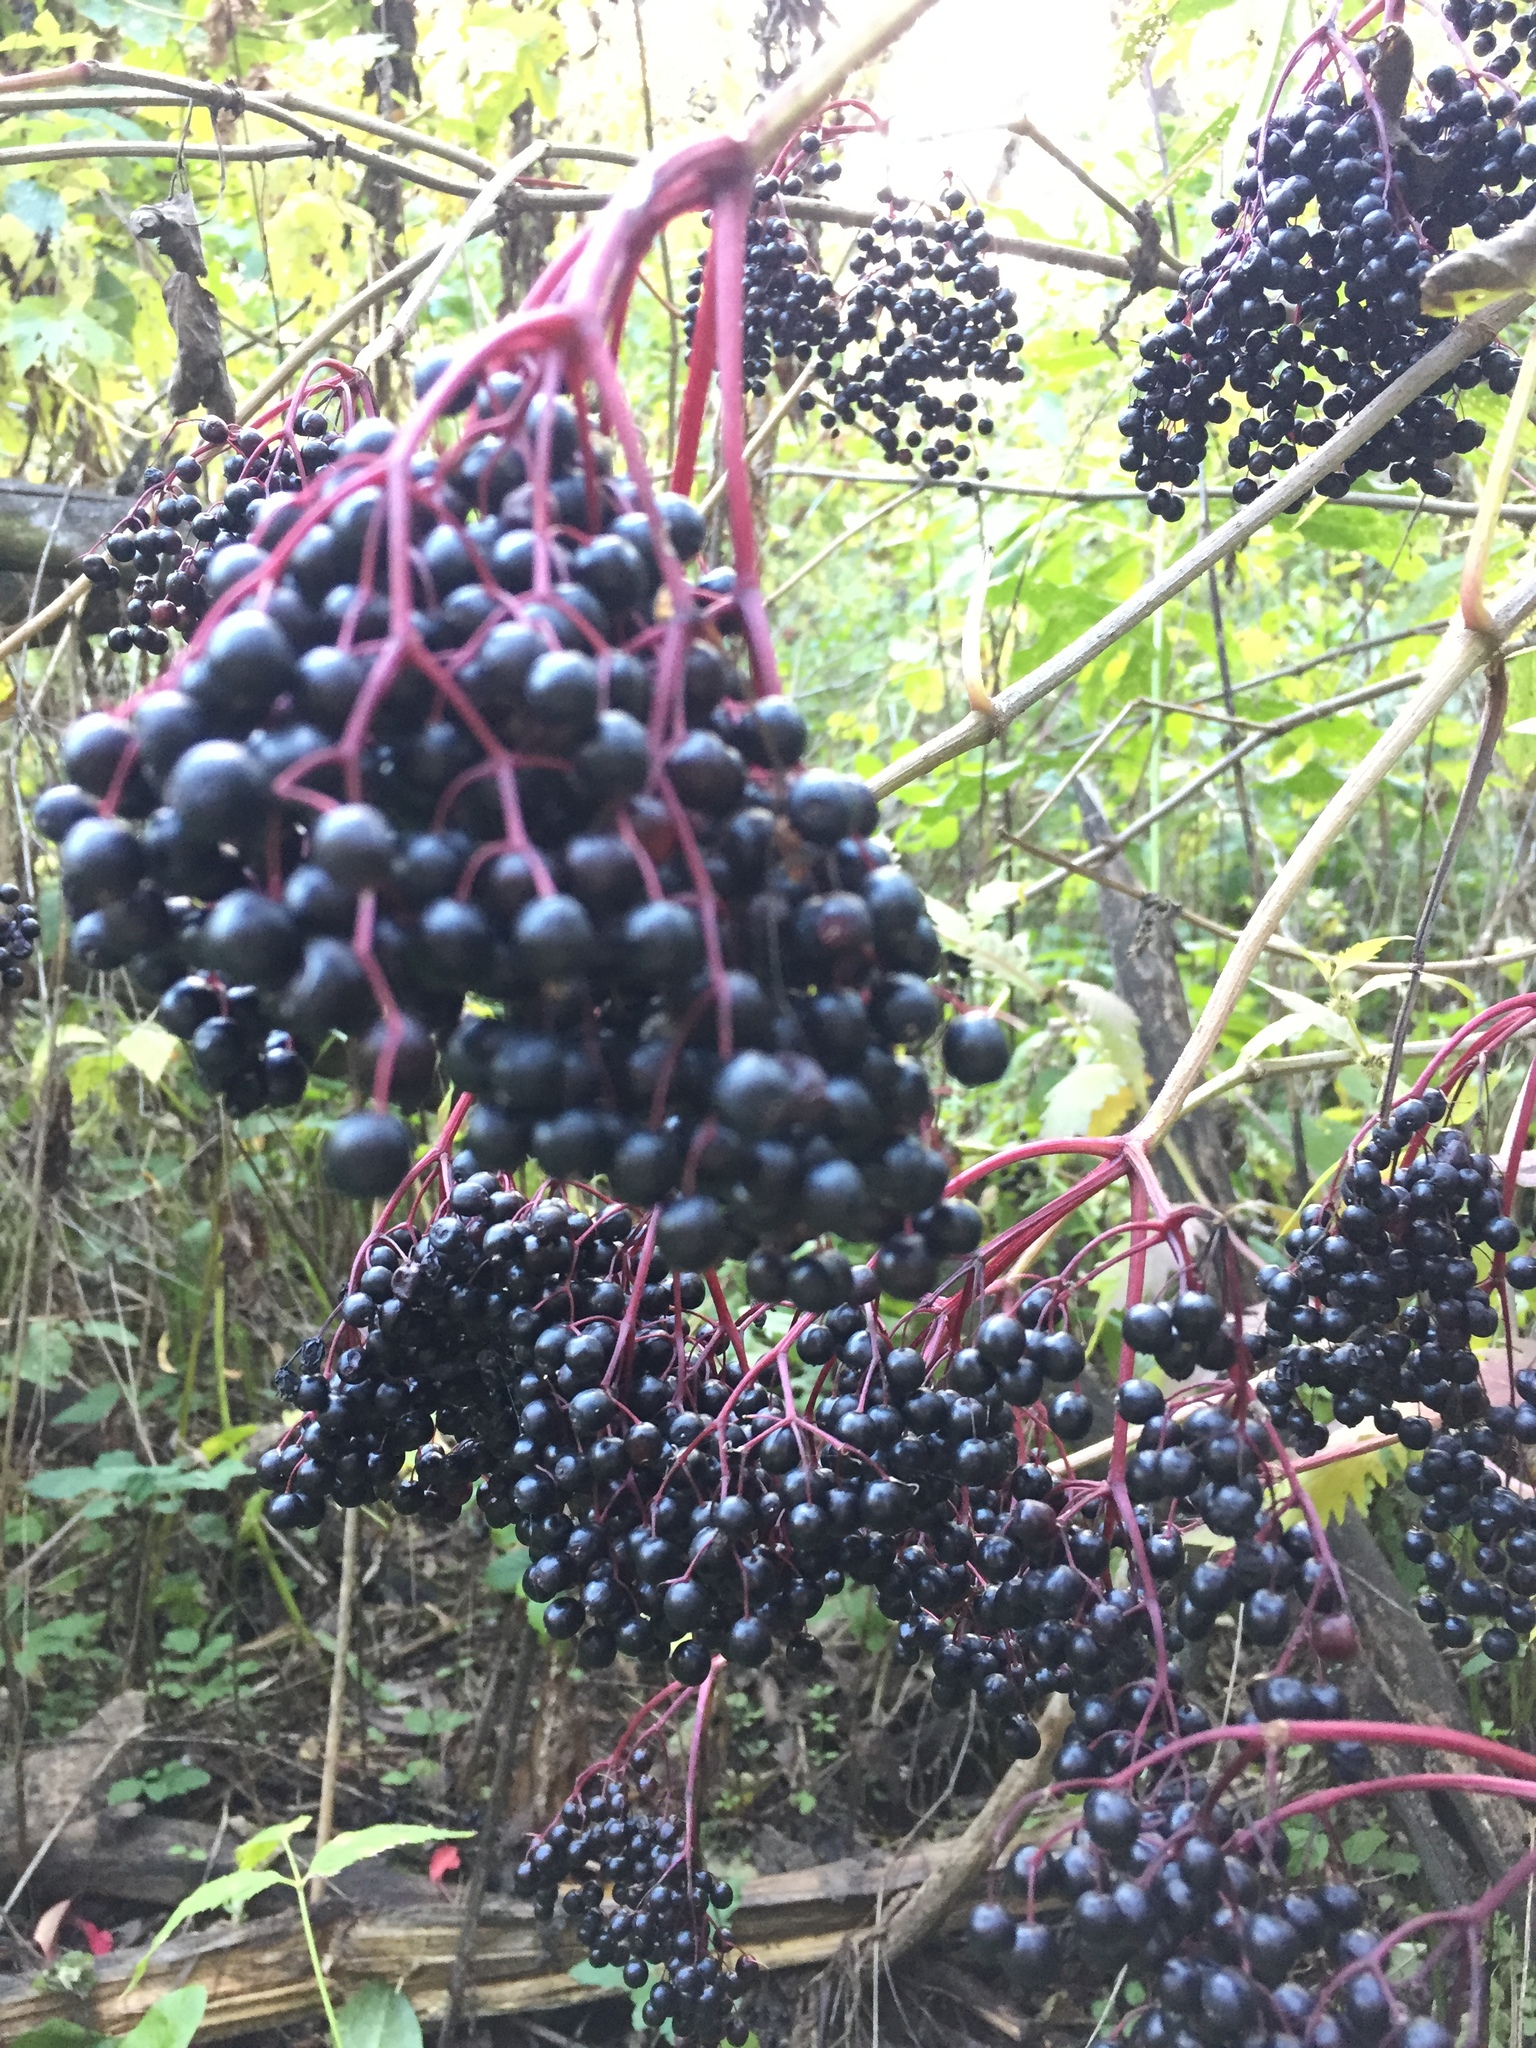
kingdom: Plantae
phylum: Tracheophyta
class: Magnoliopsida
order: Dipsacales
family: Viburnaceae
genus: Sambucus
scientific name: Sambucus nigra
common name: Elder
